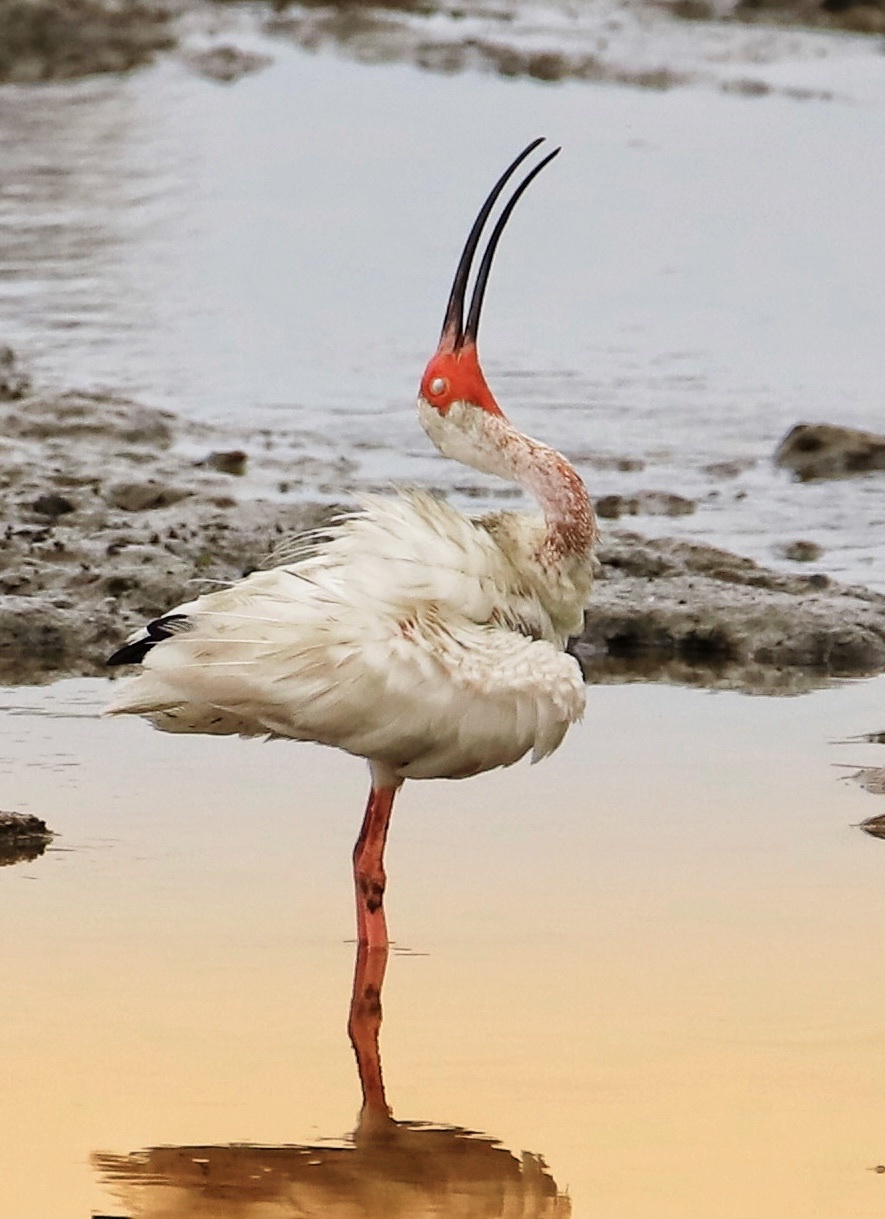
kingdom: Animalia
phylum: Chordata
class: Aves
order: Pelecaniformes
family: Threskiornithidae
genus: Eudocimus
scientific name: Eudocimus albus
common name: White ibis
